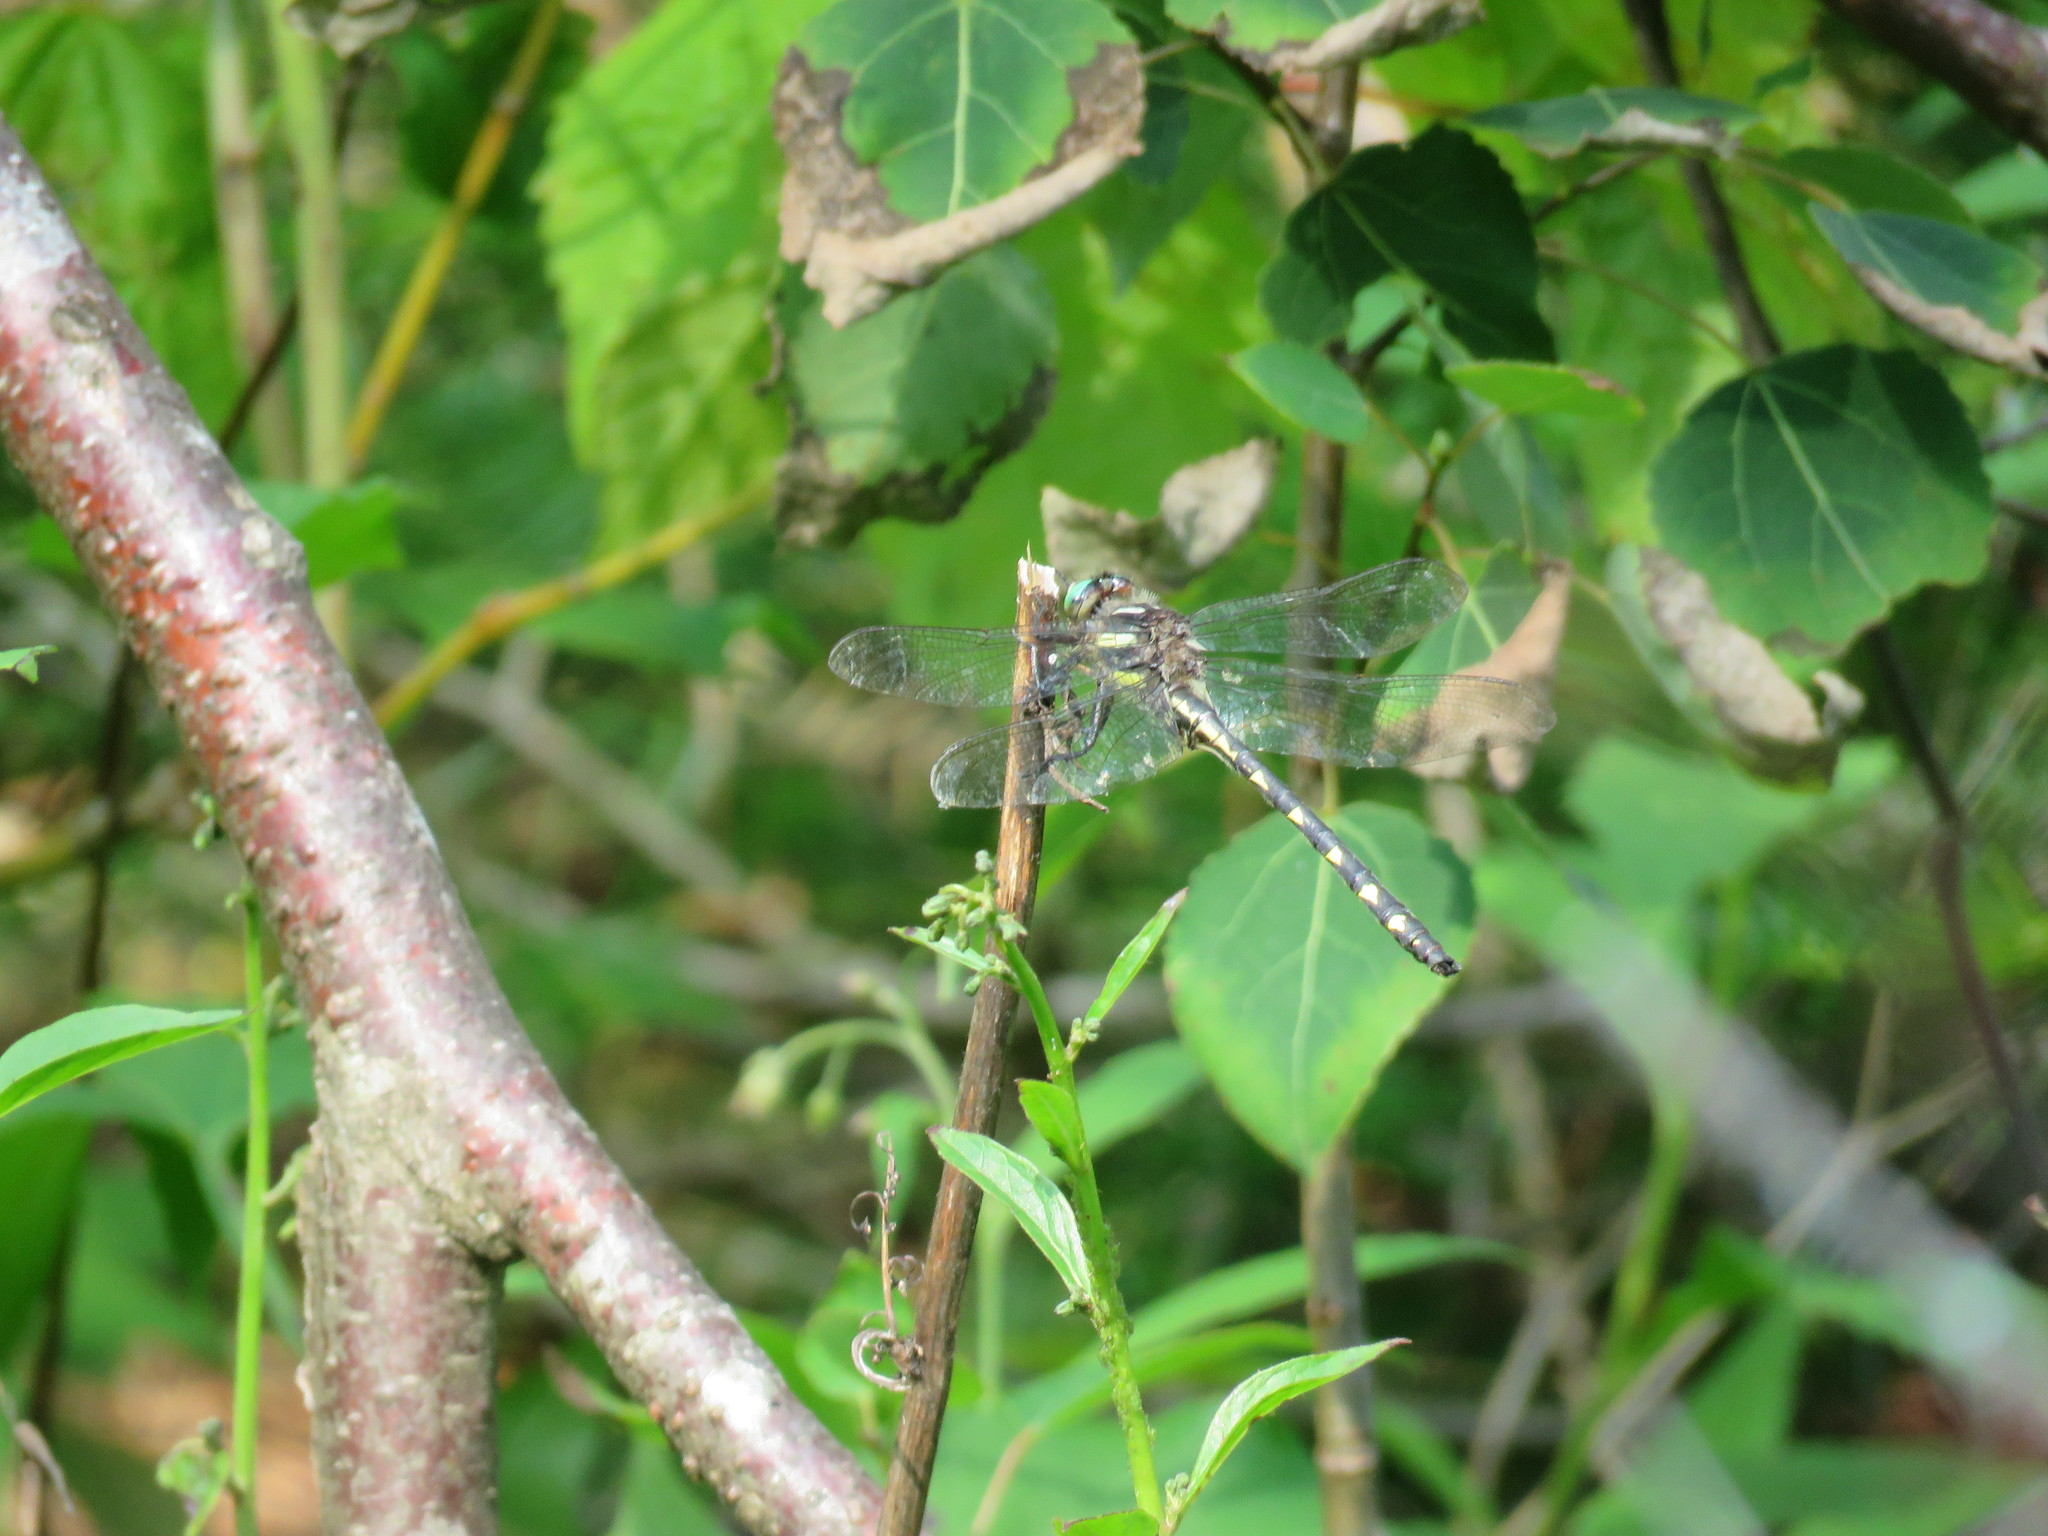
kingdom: Animalia
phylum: Arthropoda
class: Insecta
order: Odonata
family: Cordulegastridae
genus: Cordulegaster
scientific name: Cordulegaster diastatops
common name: Delta-spotted spiketail
